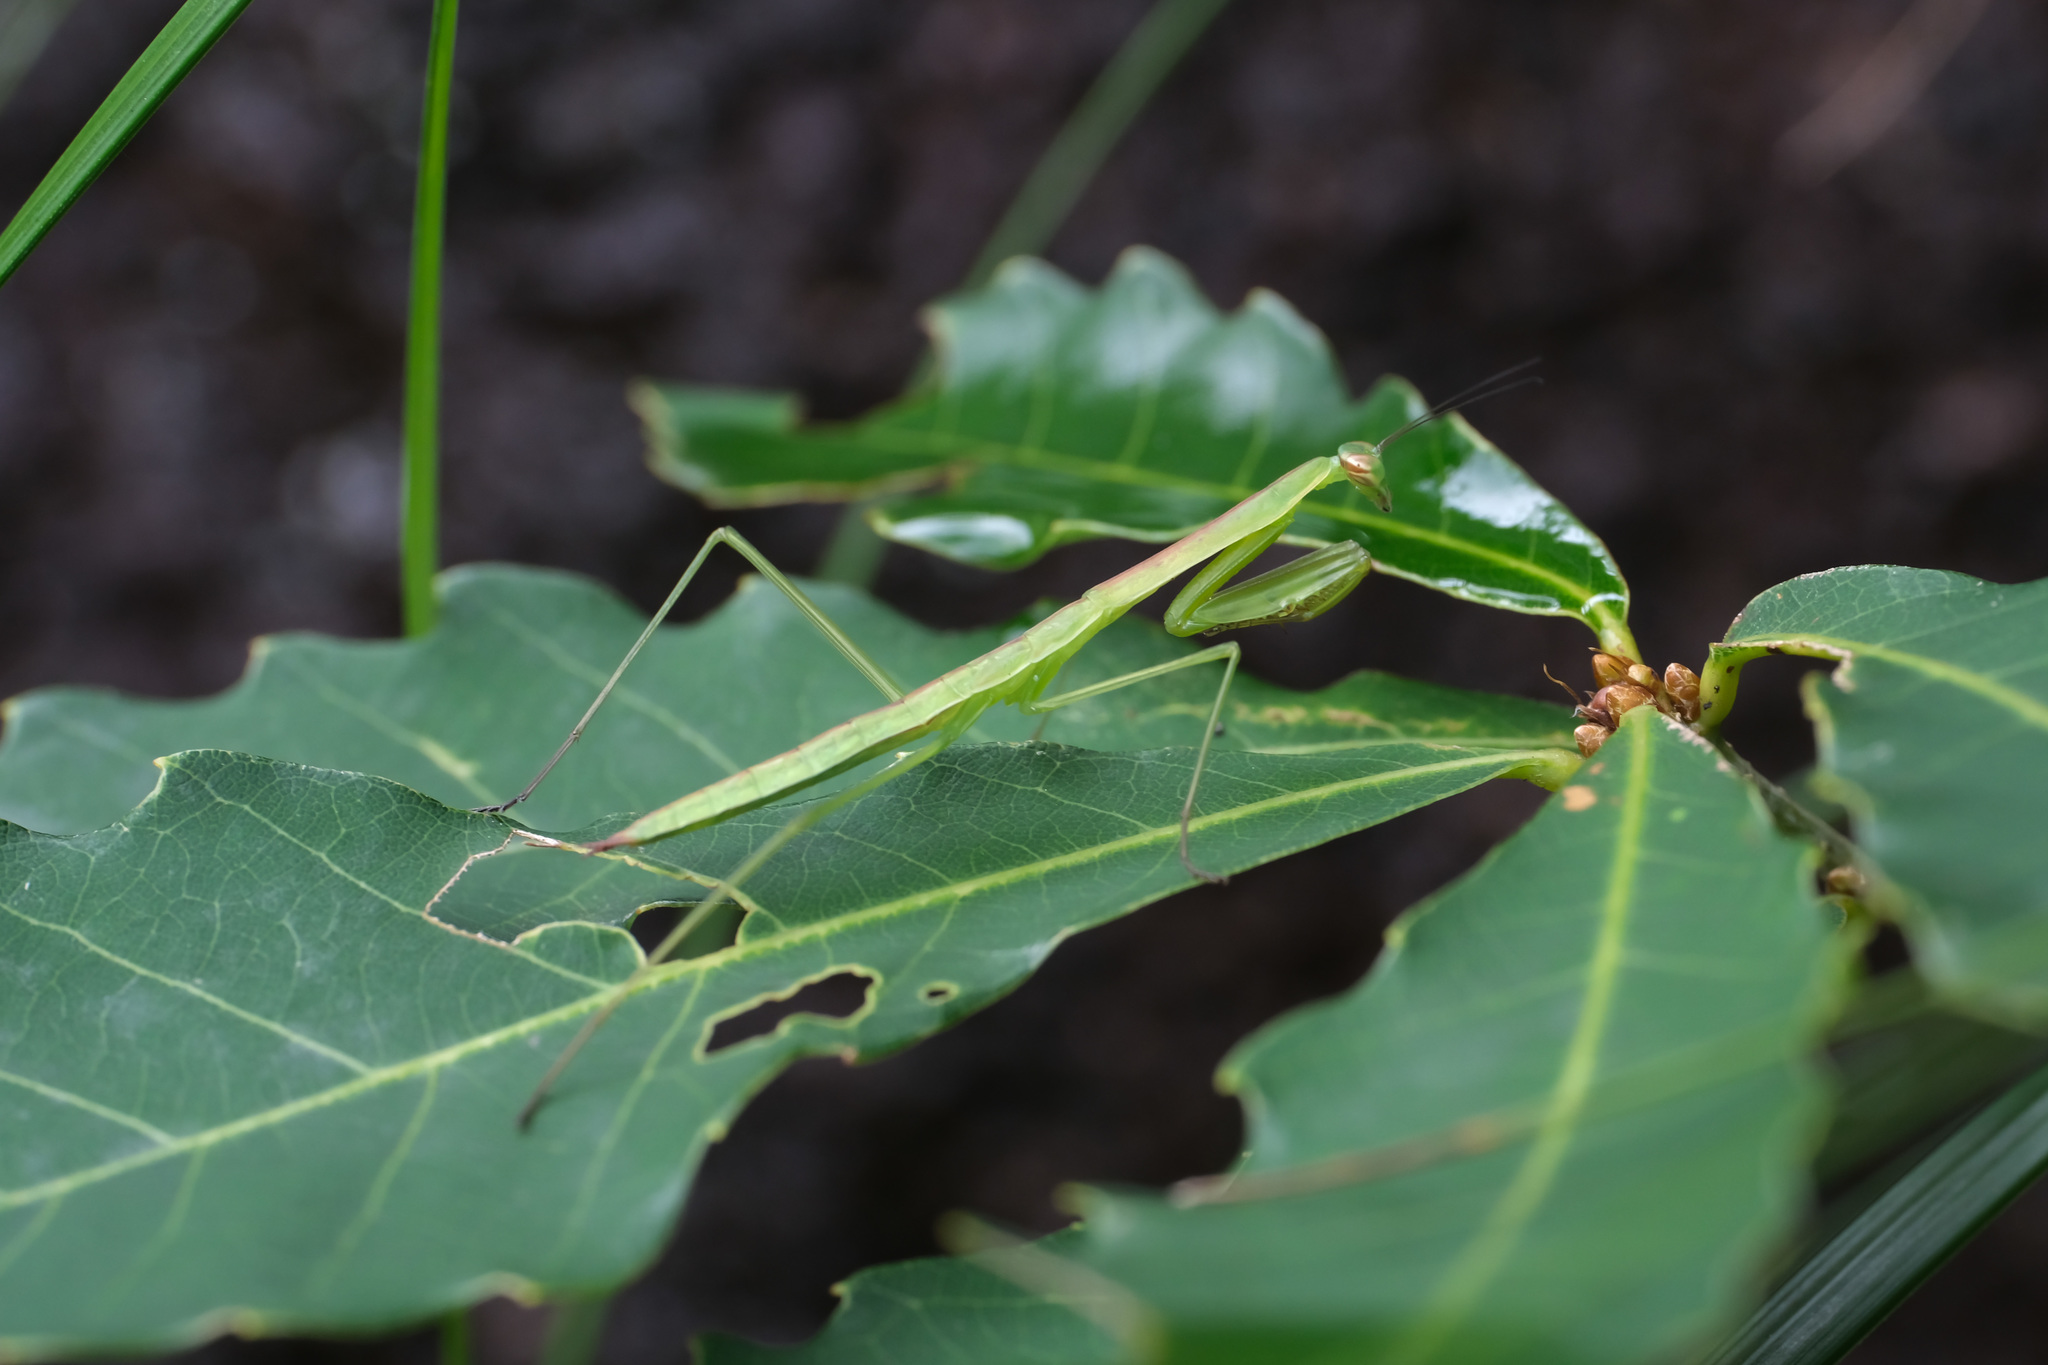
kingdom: Animalia
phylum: Arthropoda
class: Insecta
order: Mantodea
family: Mantidae
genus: Tenodera
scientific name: Tenodera sinensis
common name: Chinese mantis
